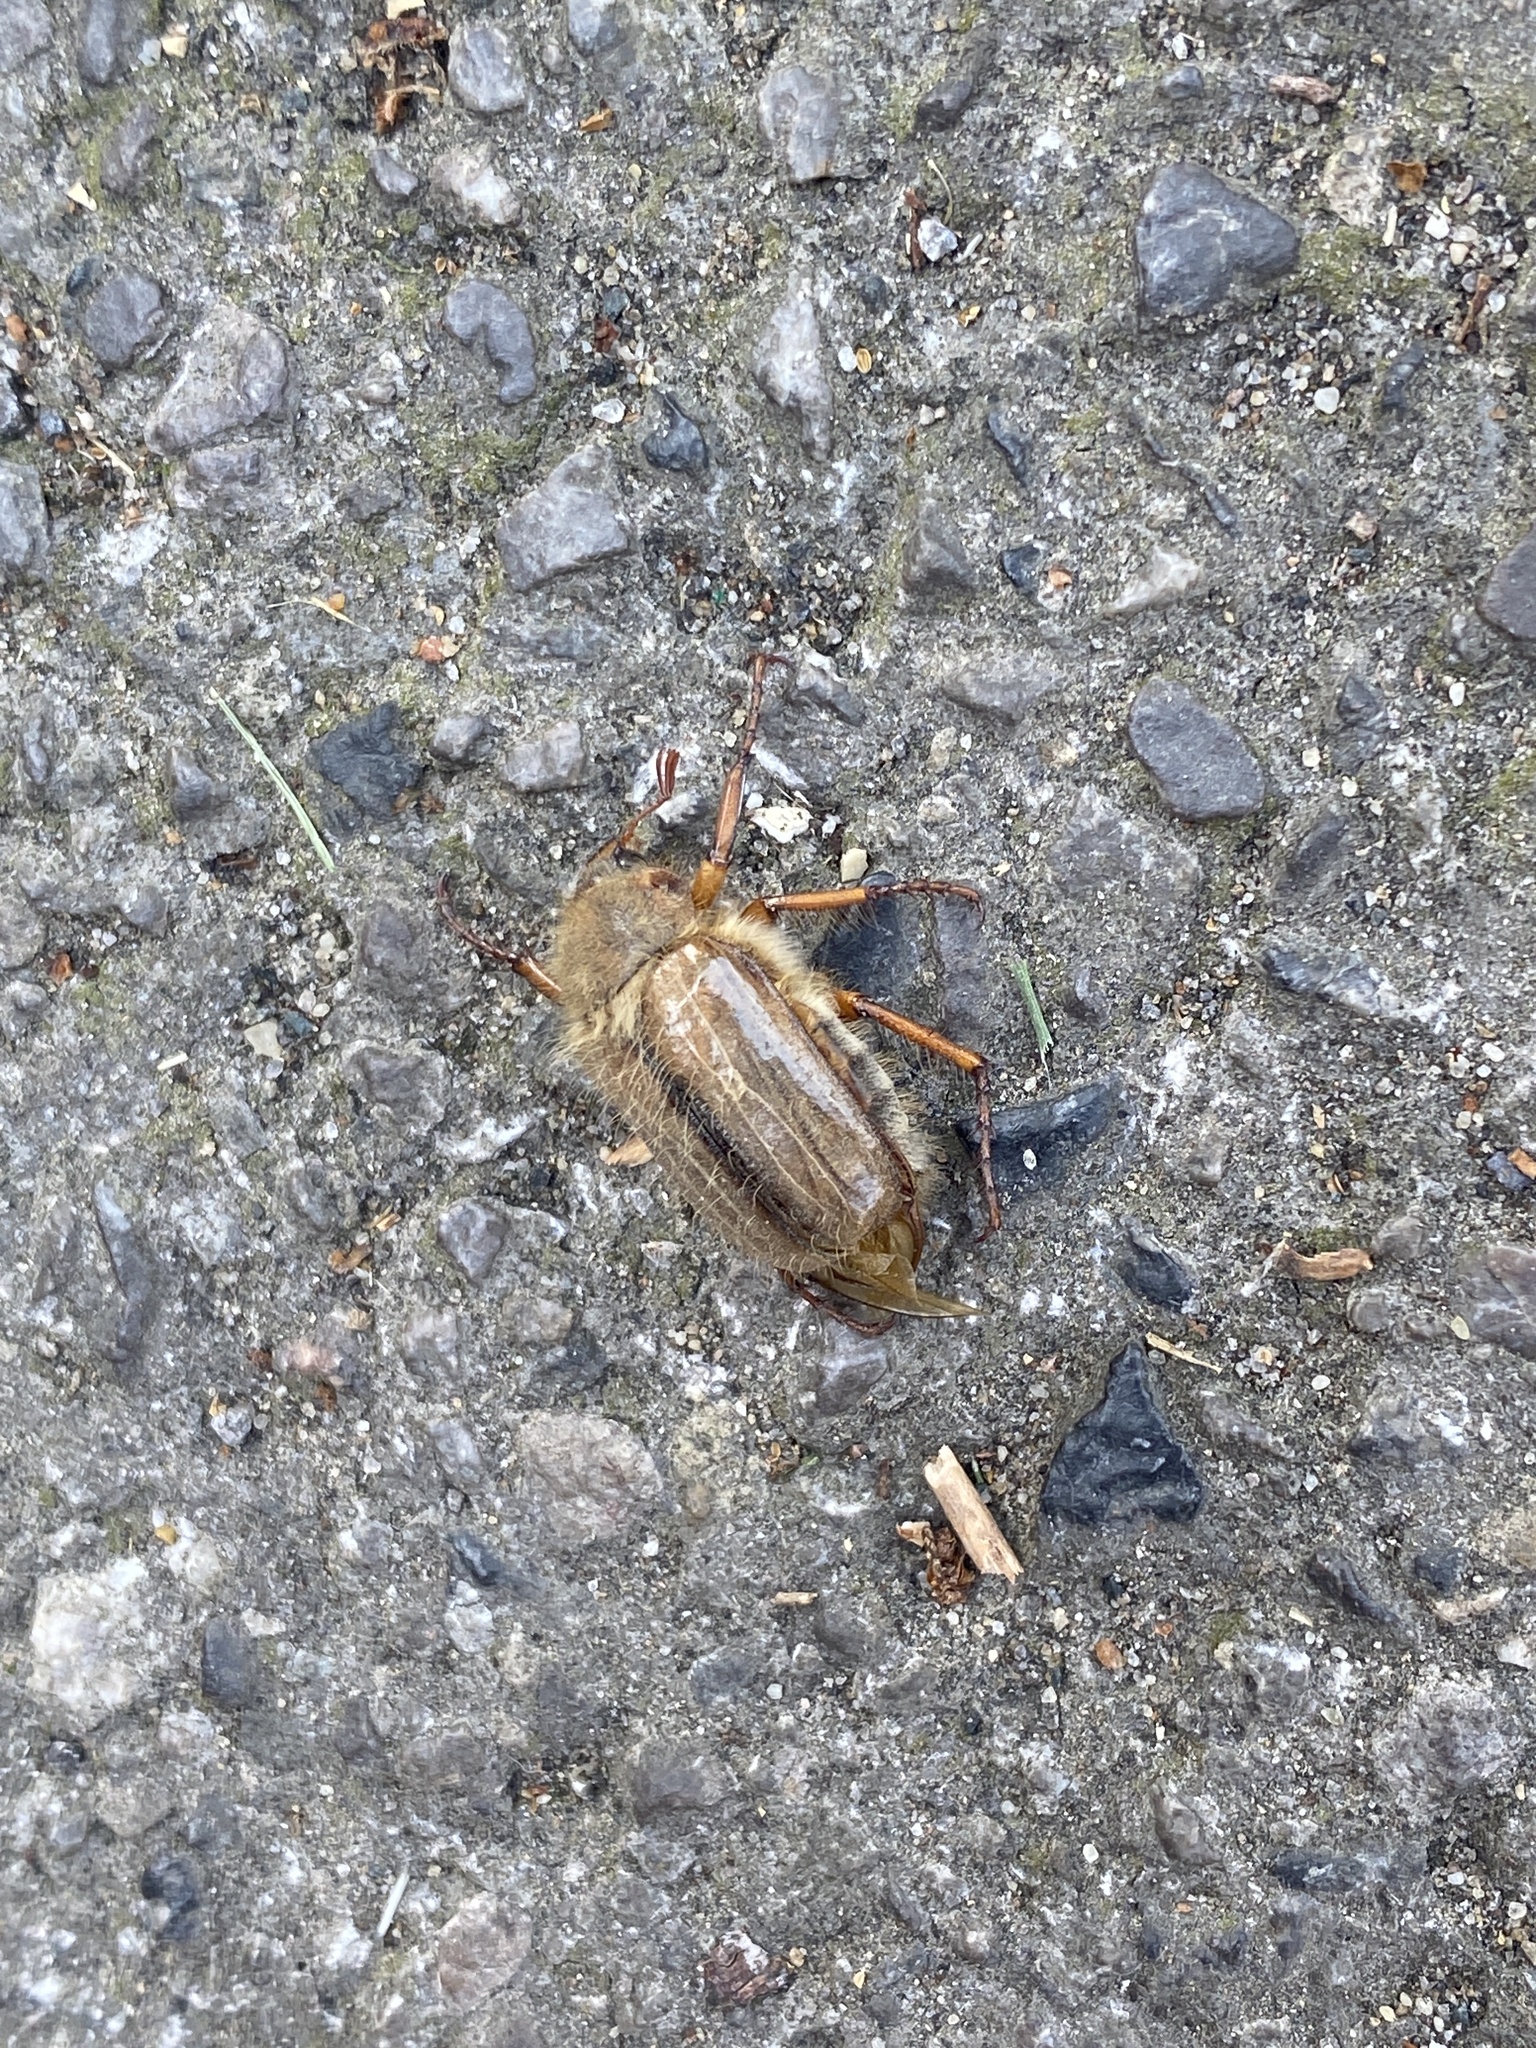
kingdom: Animalia
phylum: Arthropoda
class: Insecta
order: Coleoptera
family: Scarabaeidae
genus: Amphimallon
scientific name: Amphimallon solstitiale
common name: Summer chafer
